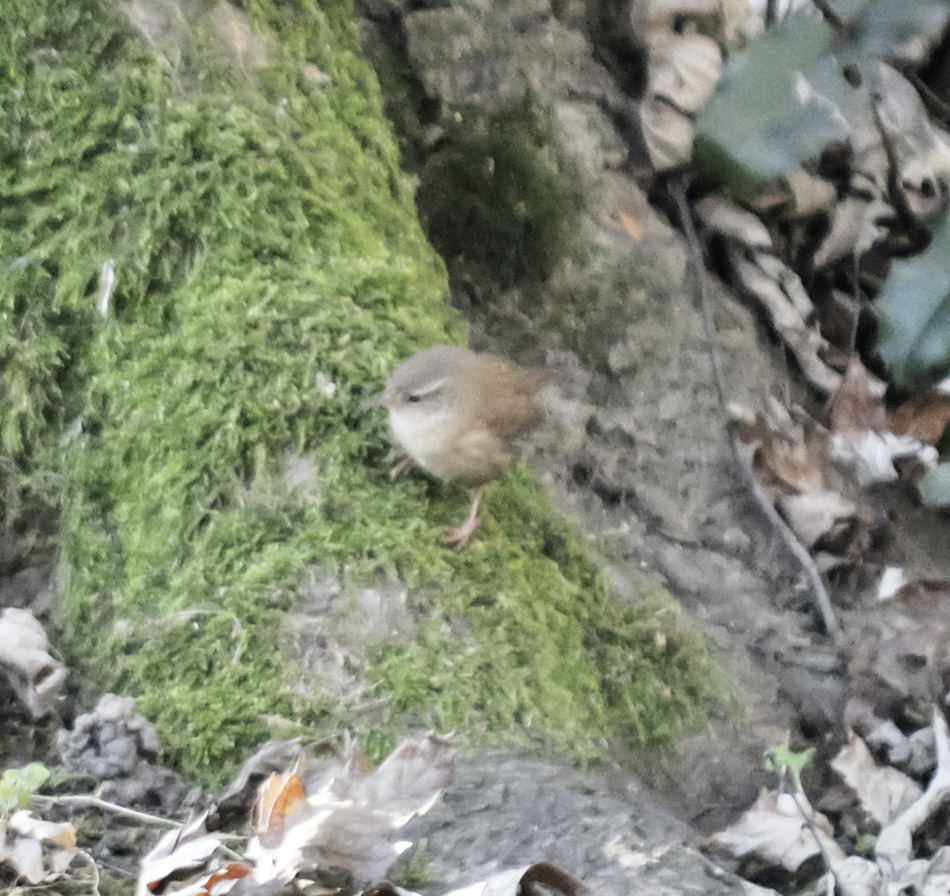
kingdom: Animalia
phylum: Chordata
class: Aves
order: Passeriformes
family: Troglodytidae
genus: Troglodytes
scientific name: Troglodytes troglodytes
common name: Eurasian wren
